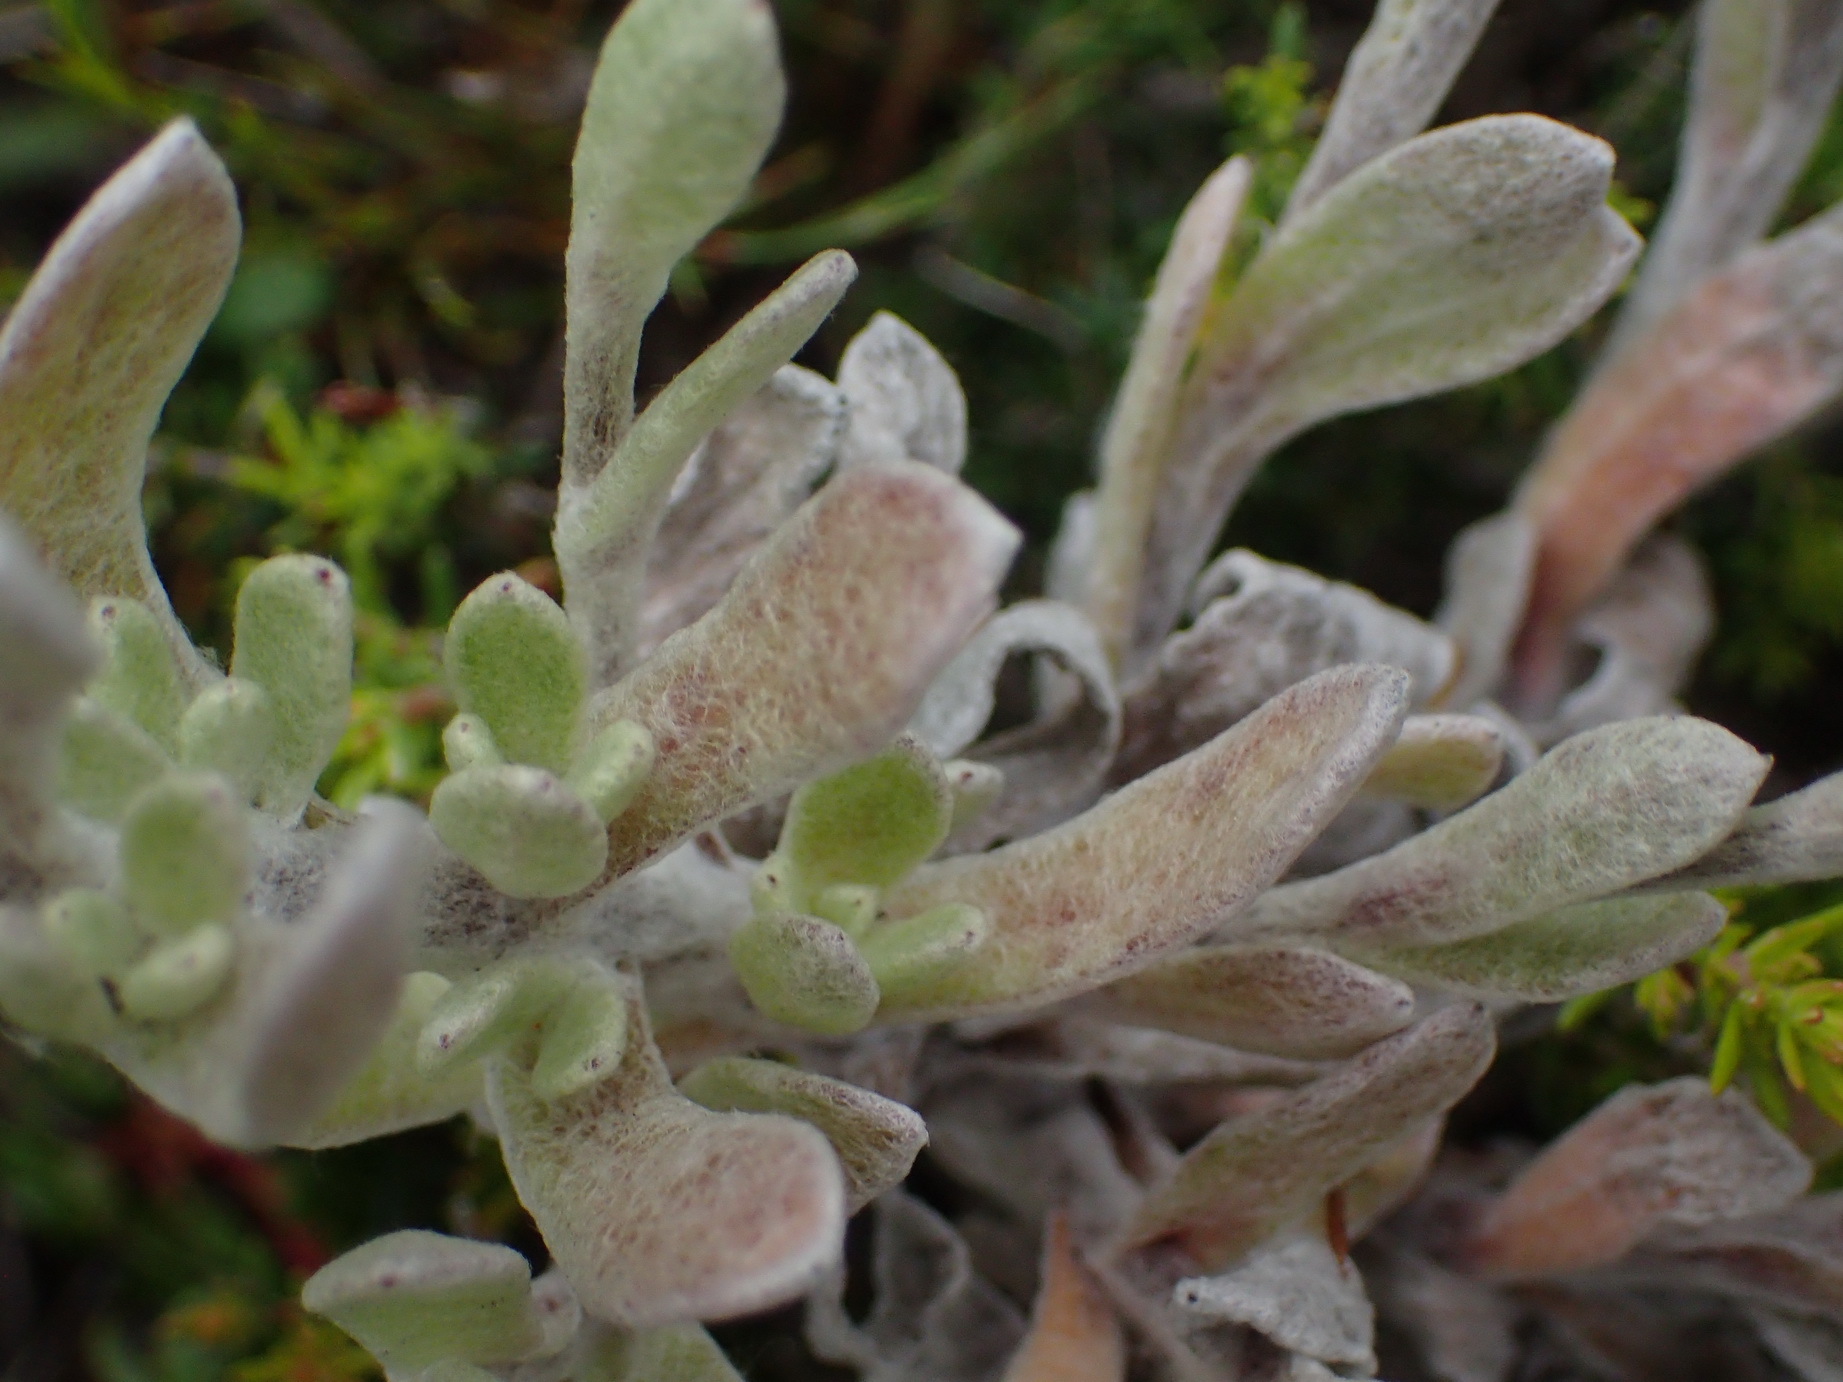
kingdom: Plantae
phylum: Tracheophyta
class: Magnoliopsida
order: Asterales
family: Asteraceae
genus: Helichrysum
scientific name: Helichrysum spiralepis
